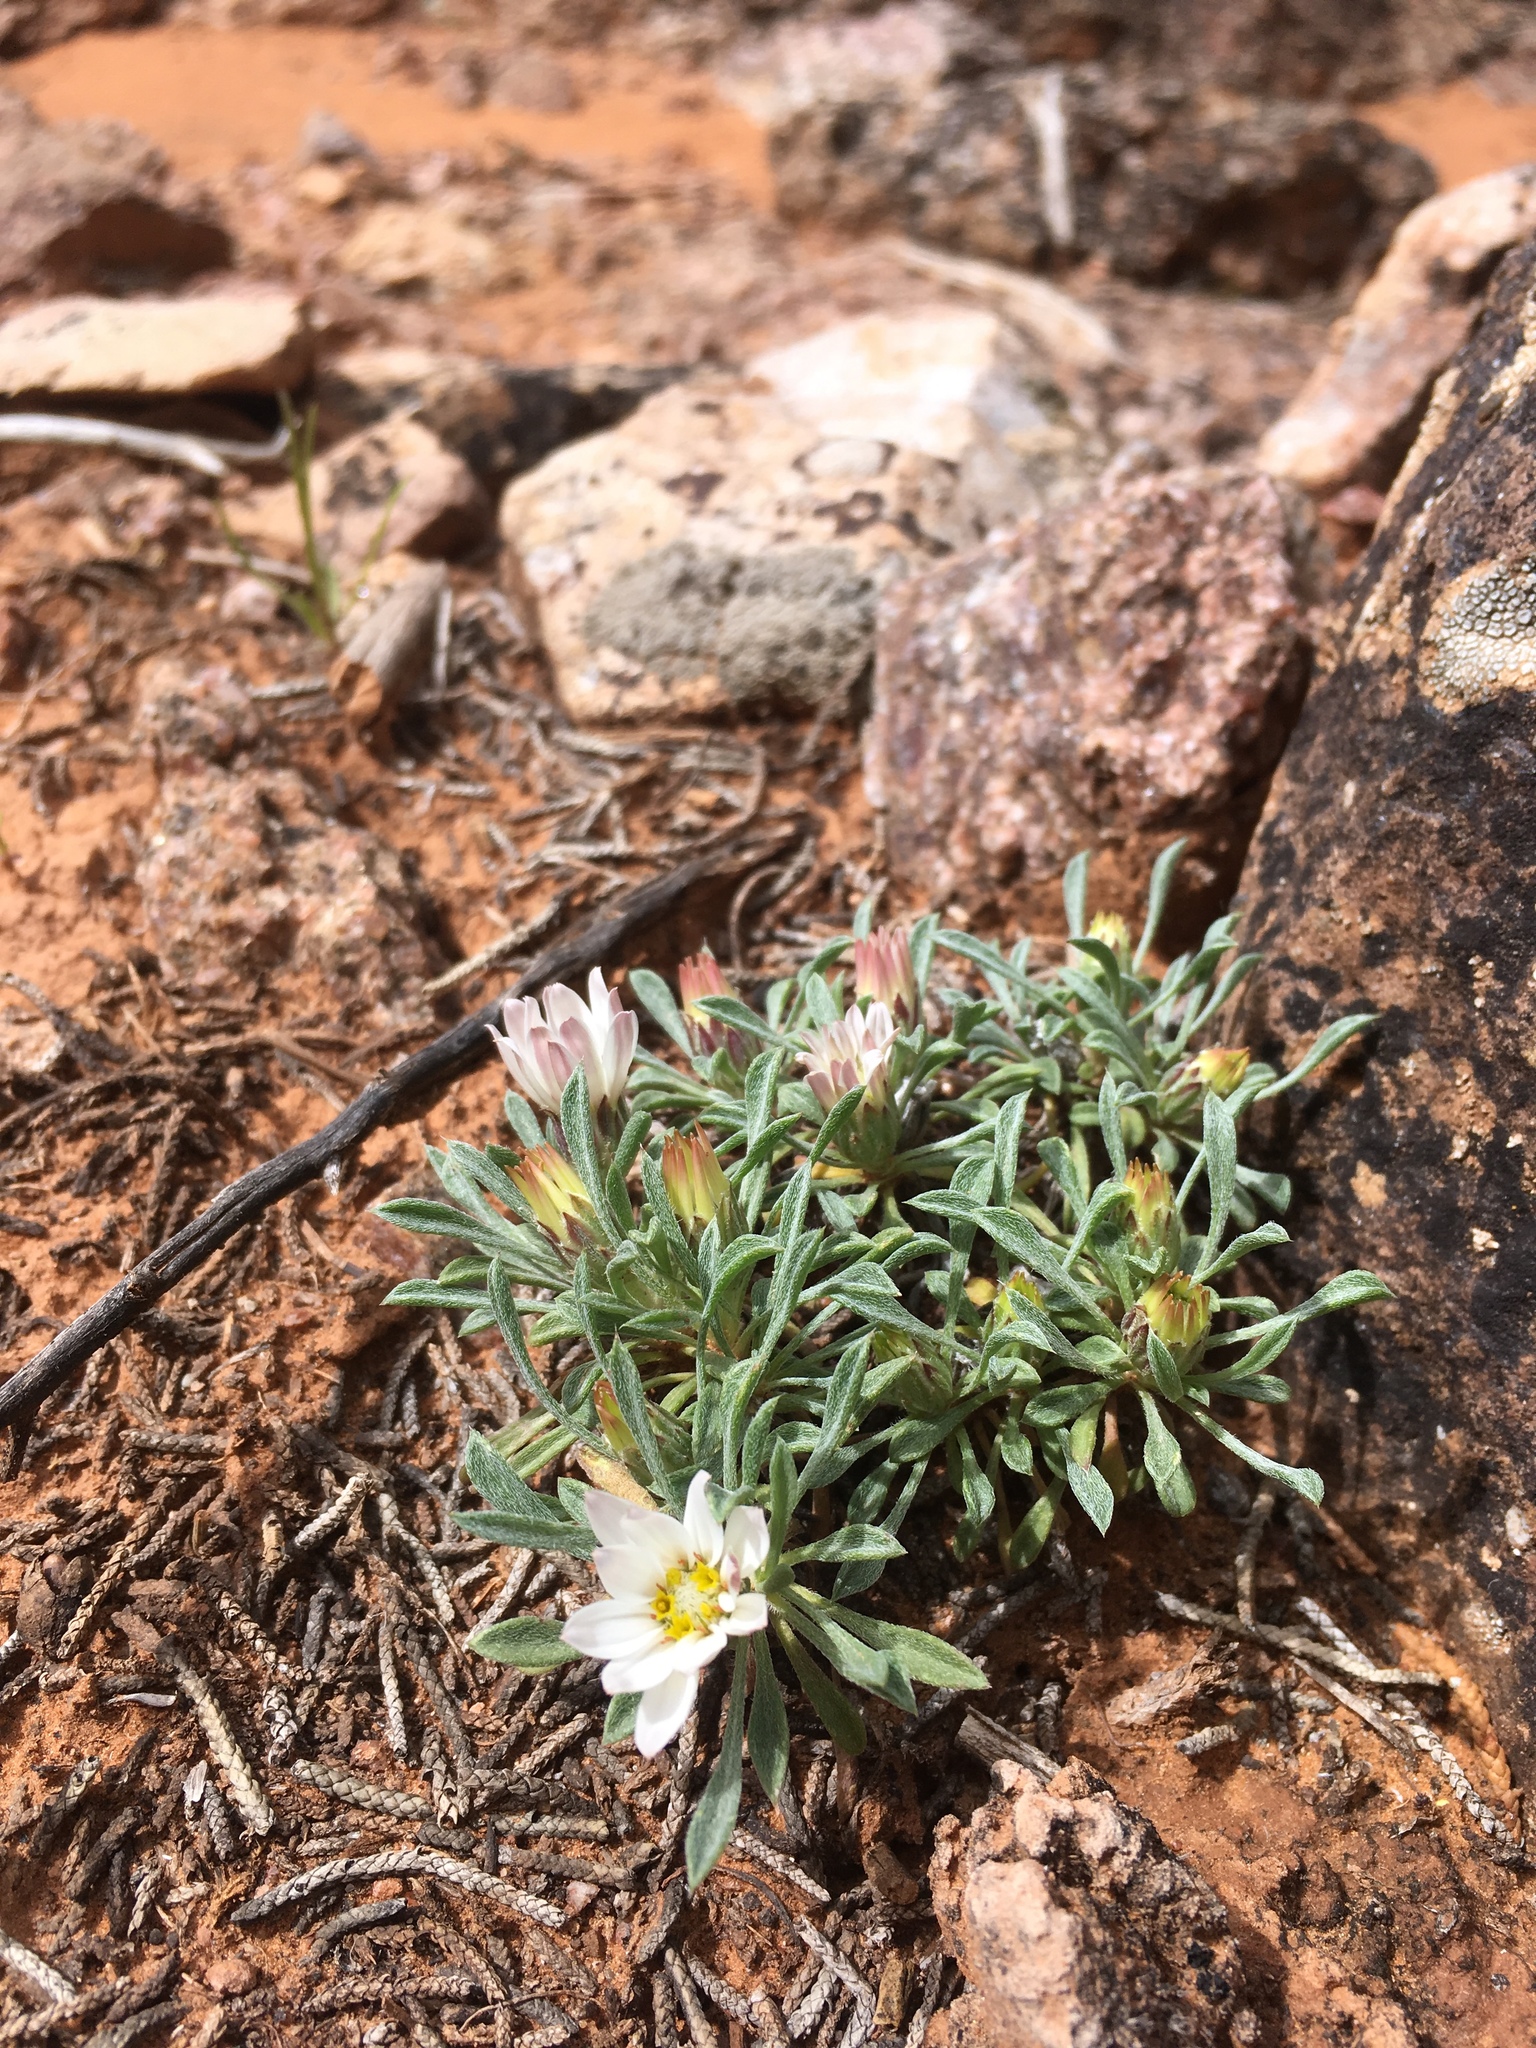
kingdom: Plantae
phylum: Tracheophyta
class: Magnoliopsida
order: Asterales
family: Asteraceae
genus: Townsendia
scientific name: Townsendia incana
